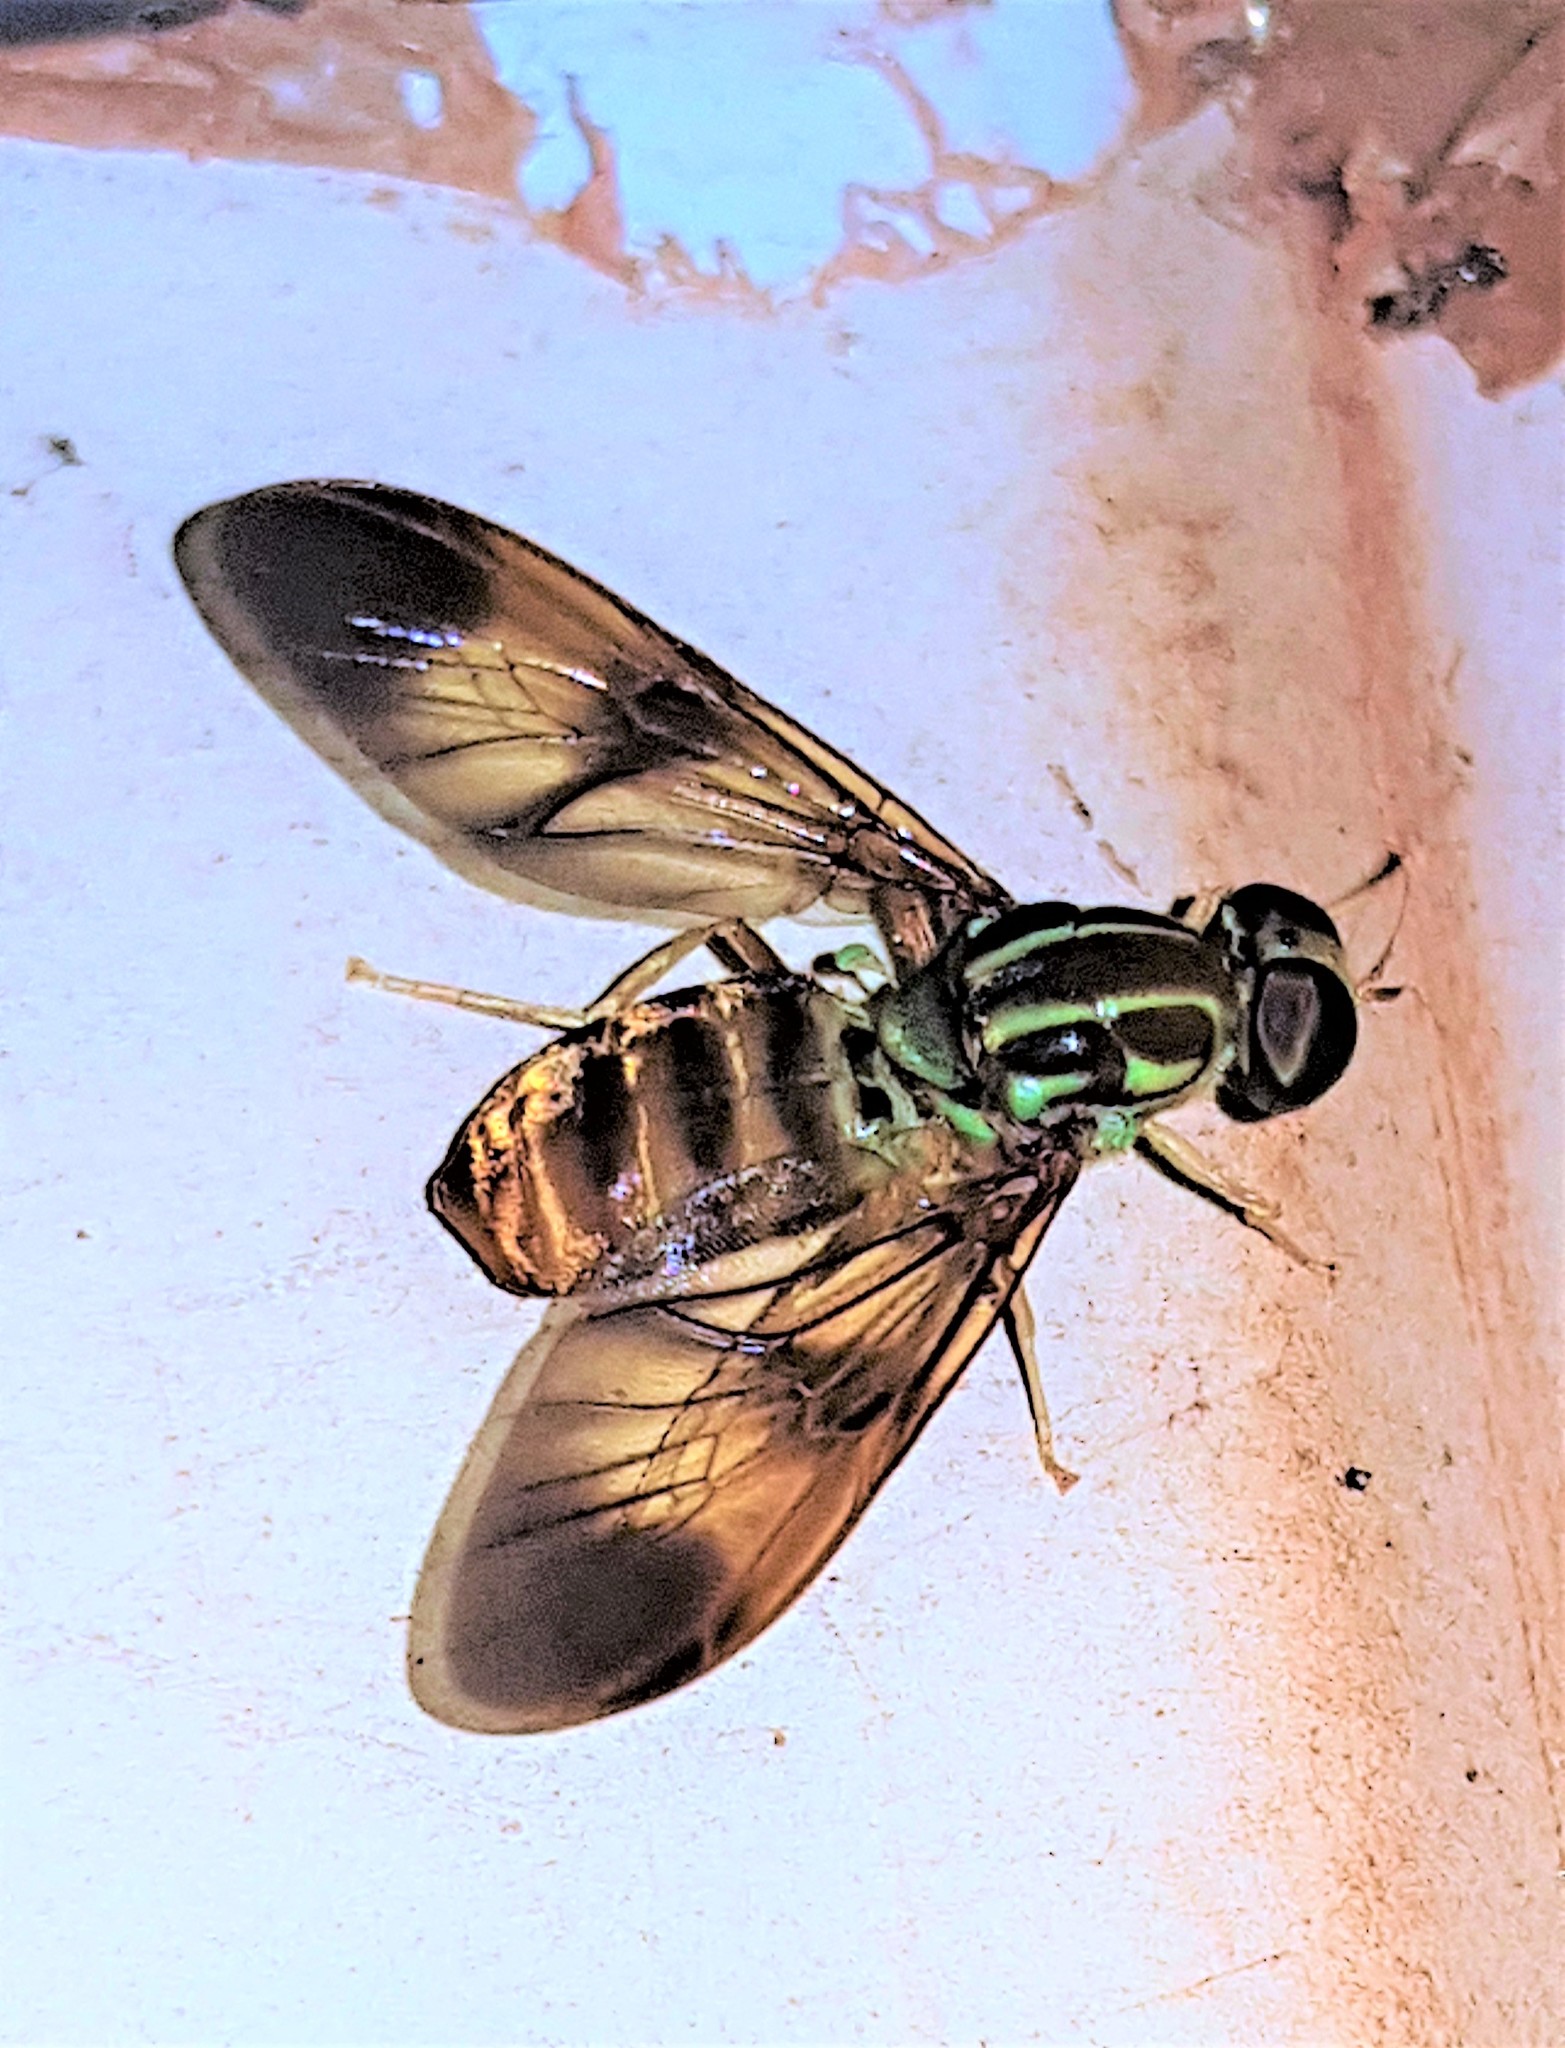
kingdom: Animalia
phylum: Arthropoda
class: Insecta
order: Diptera
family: Stratiomyidae
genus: Chrysochlorina
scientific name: Chrysochlorina currani
